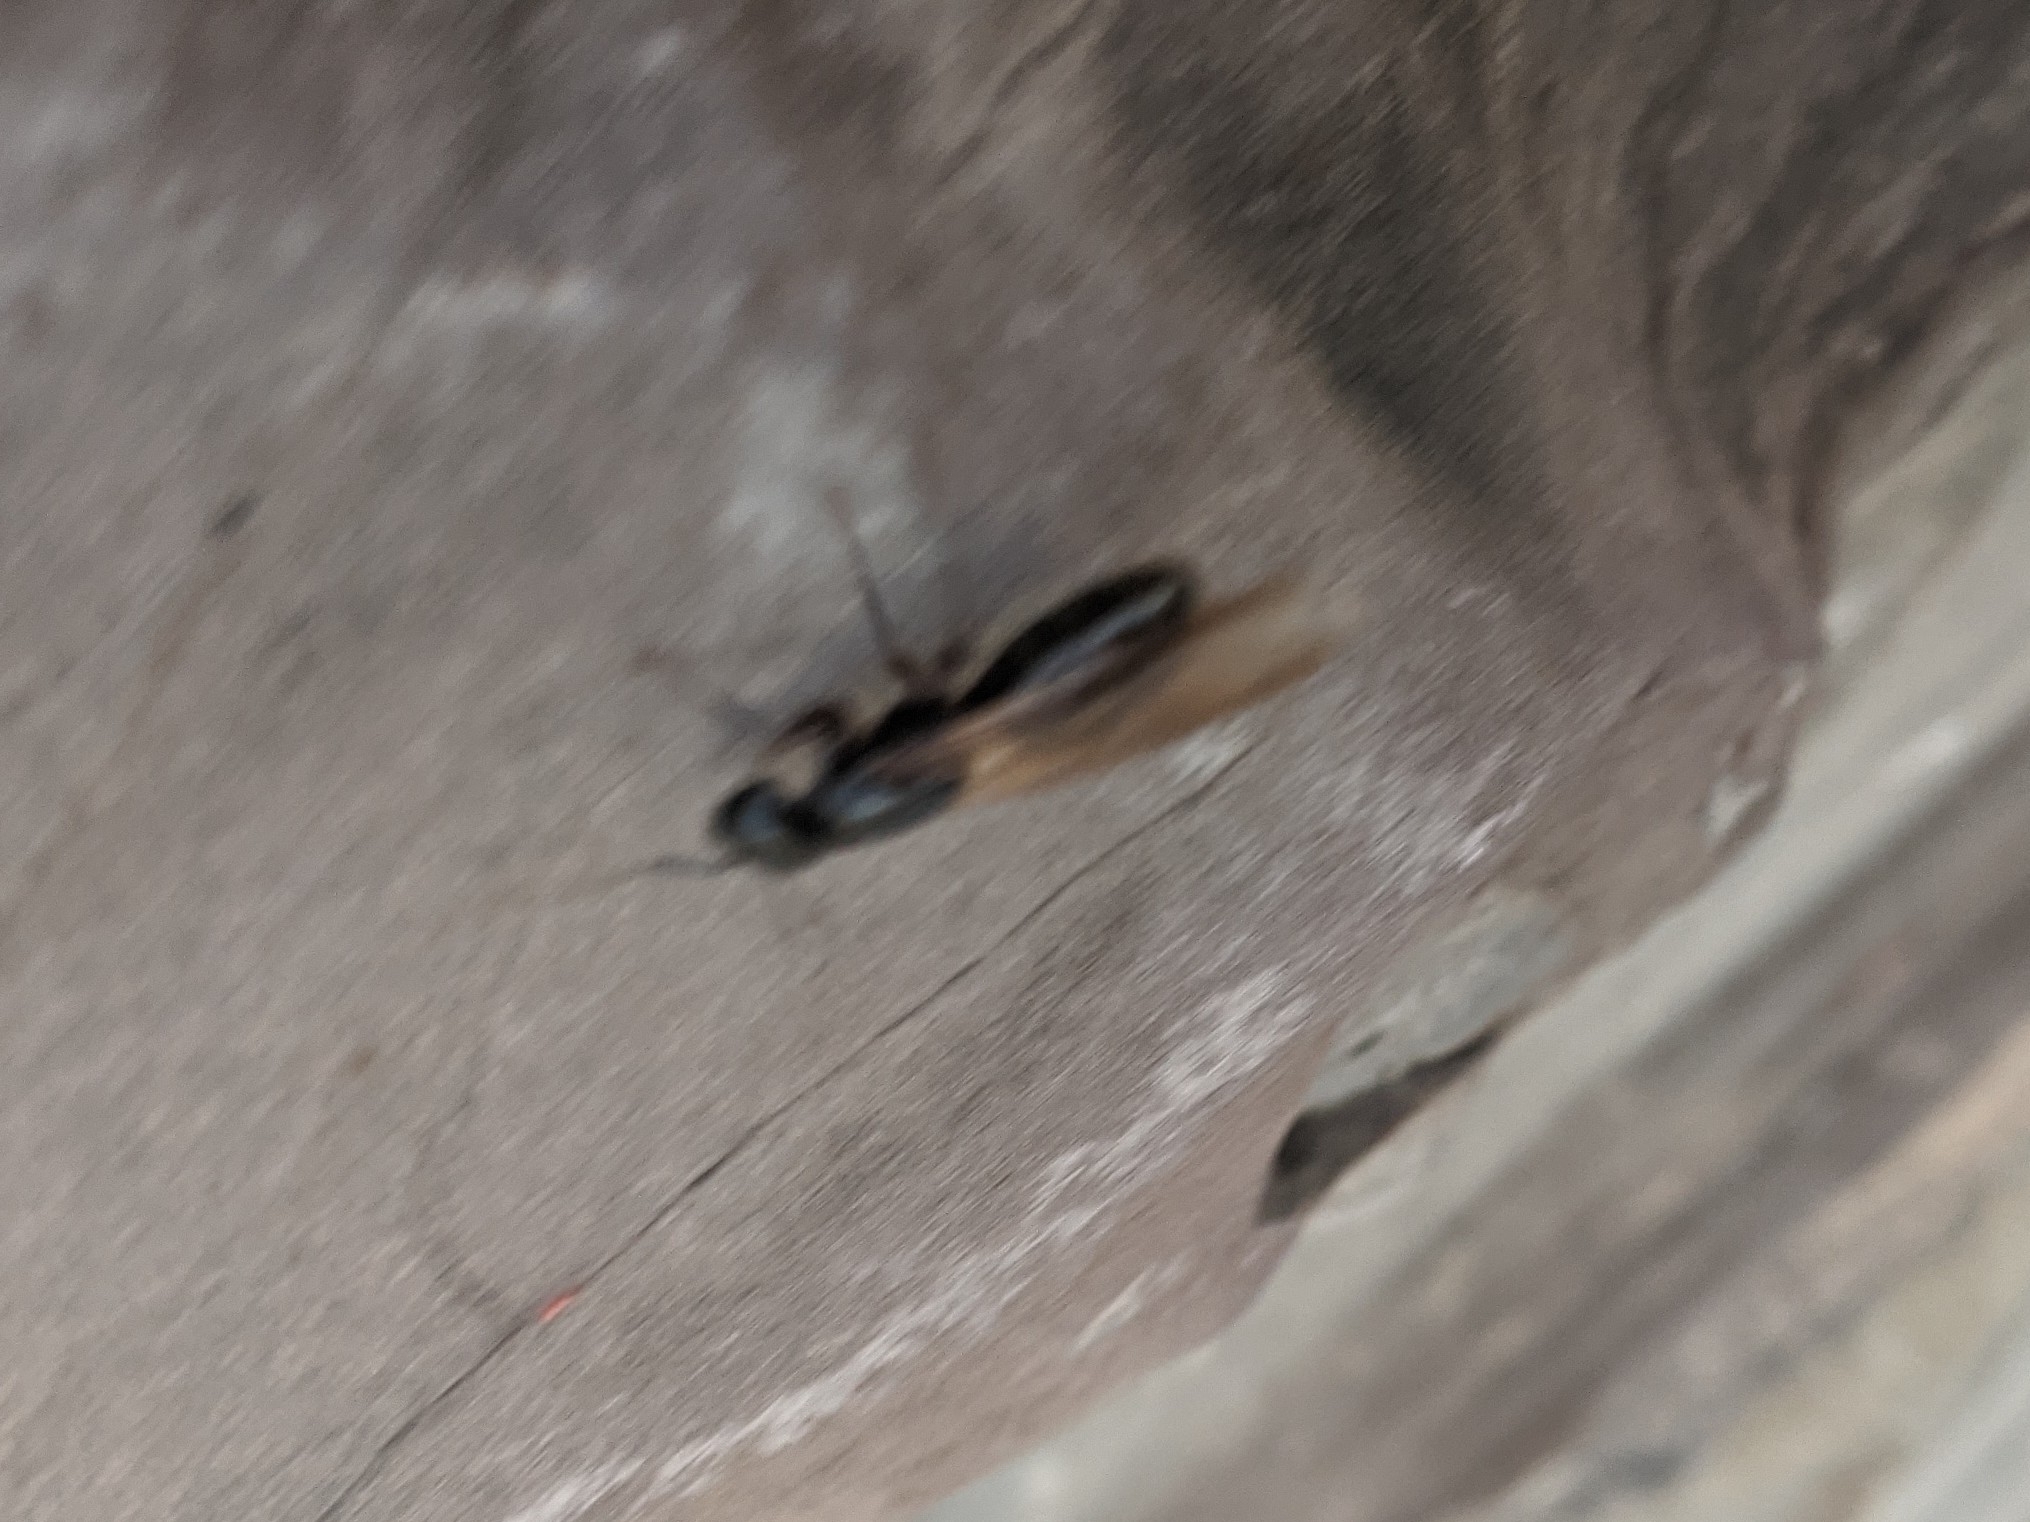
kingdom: Animalia
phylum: Arthropoda
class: Insecta
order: Hymenoptera
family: Formicidae
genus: Camponotus
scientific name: Camponotus pennsylvanicus
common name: Black carpenter ant
